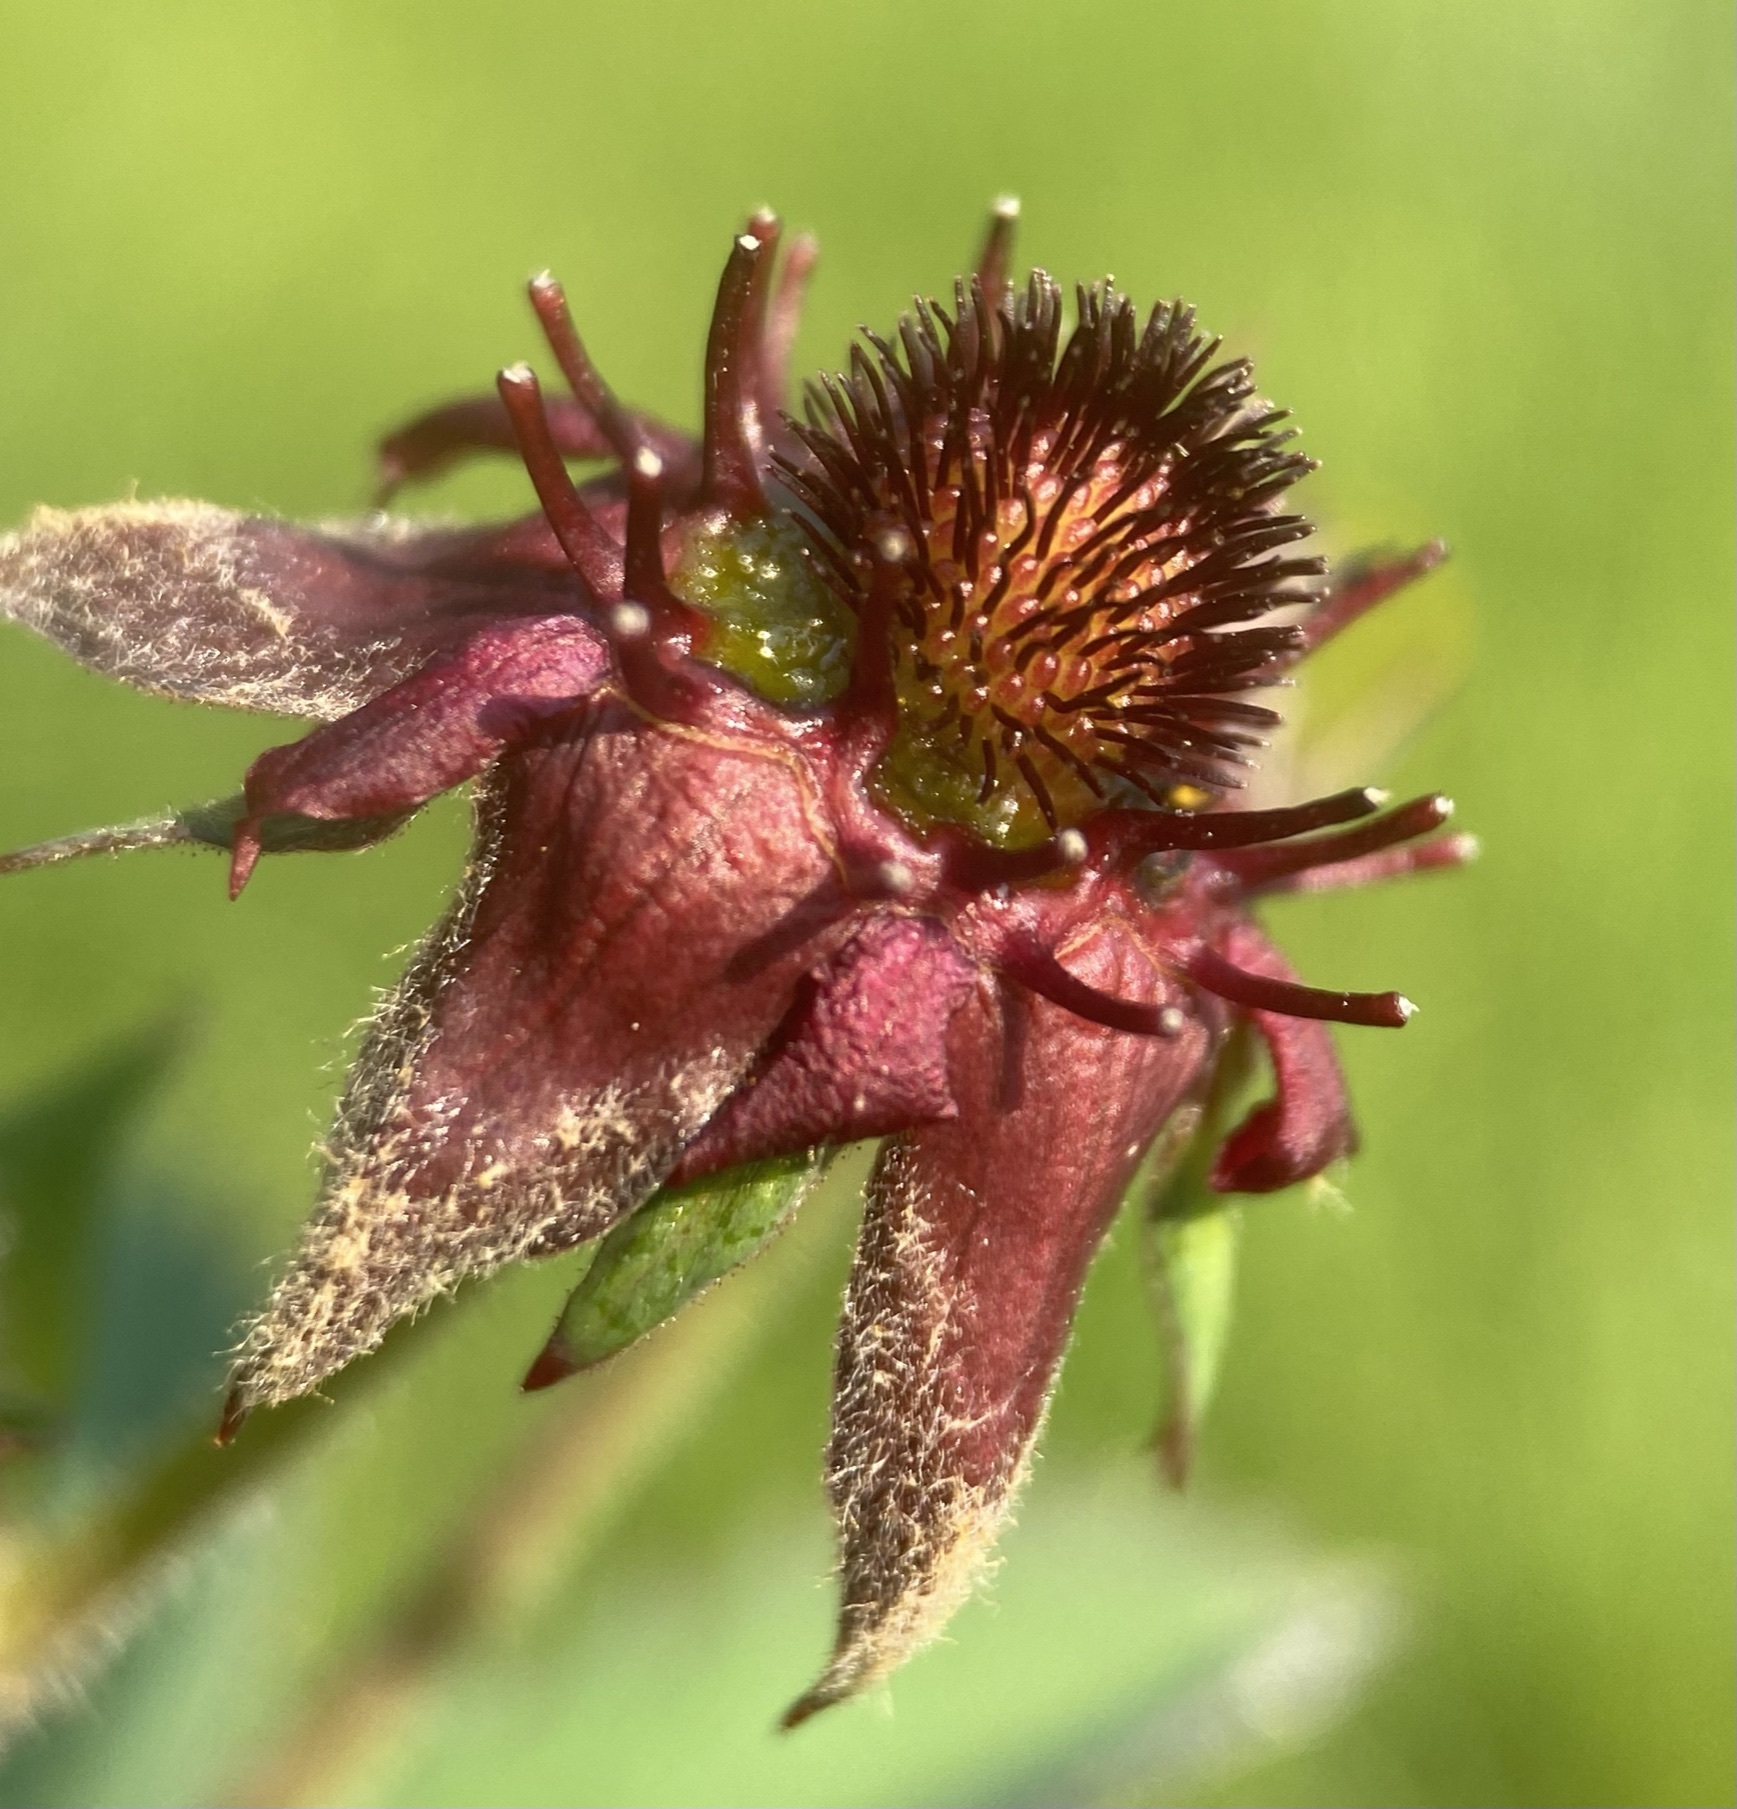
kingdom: Plantae
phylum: Tracheophyta
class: Magnoliopsida
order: Rosales
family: Rosaceae
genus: Comarum
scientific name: Comarum palustre
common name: Marsh cinquefoil
